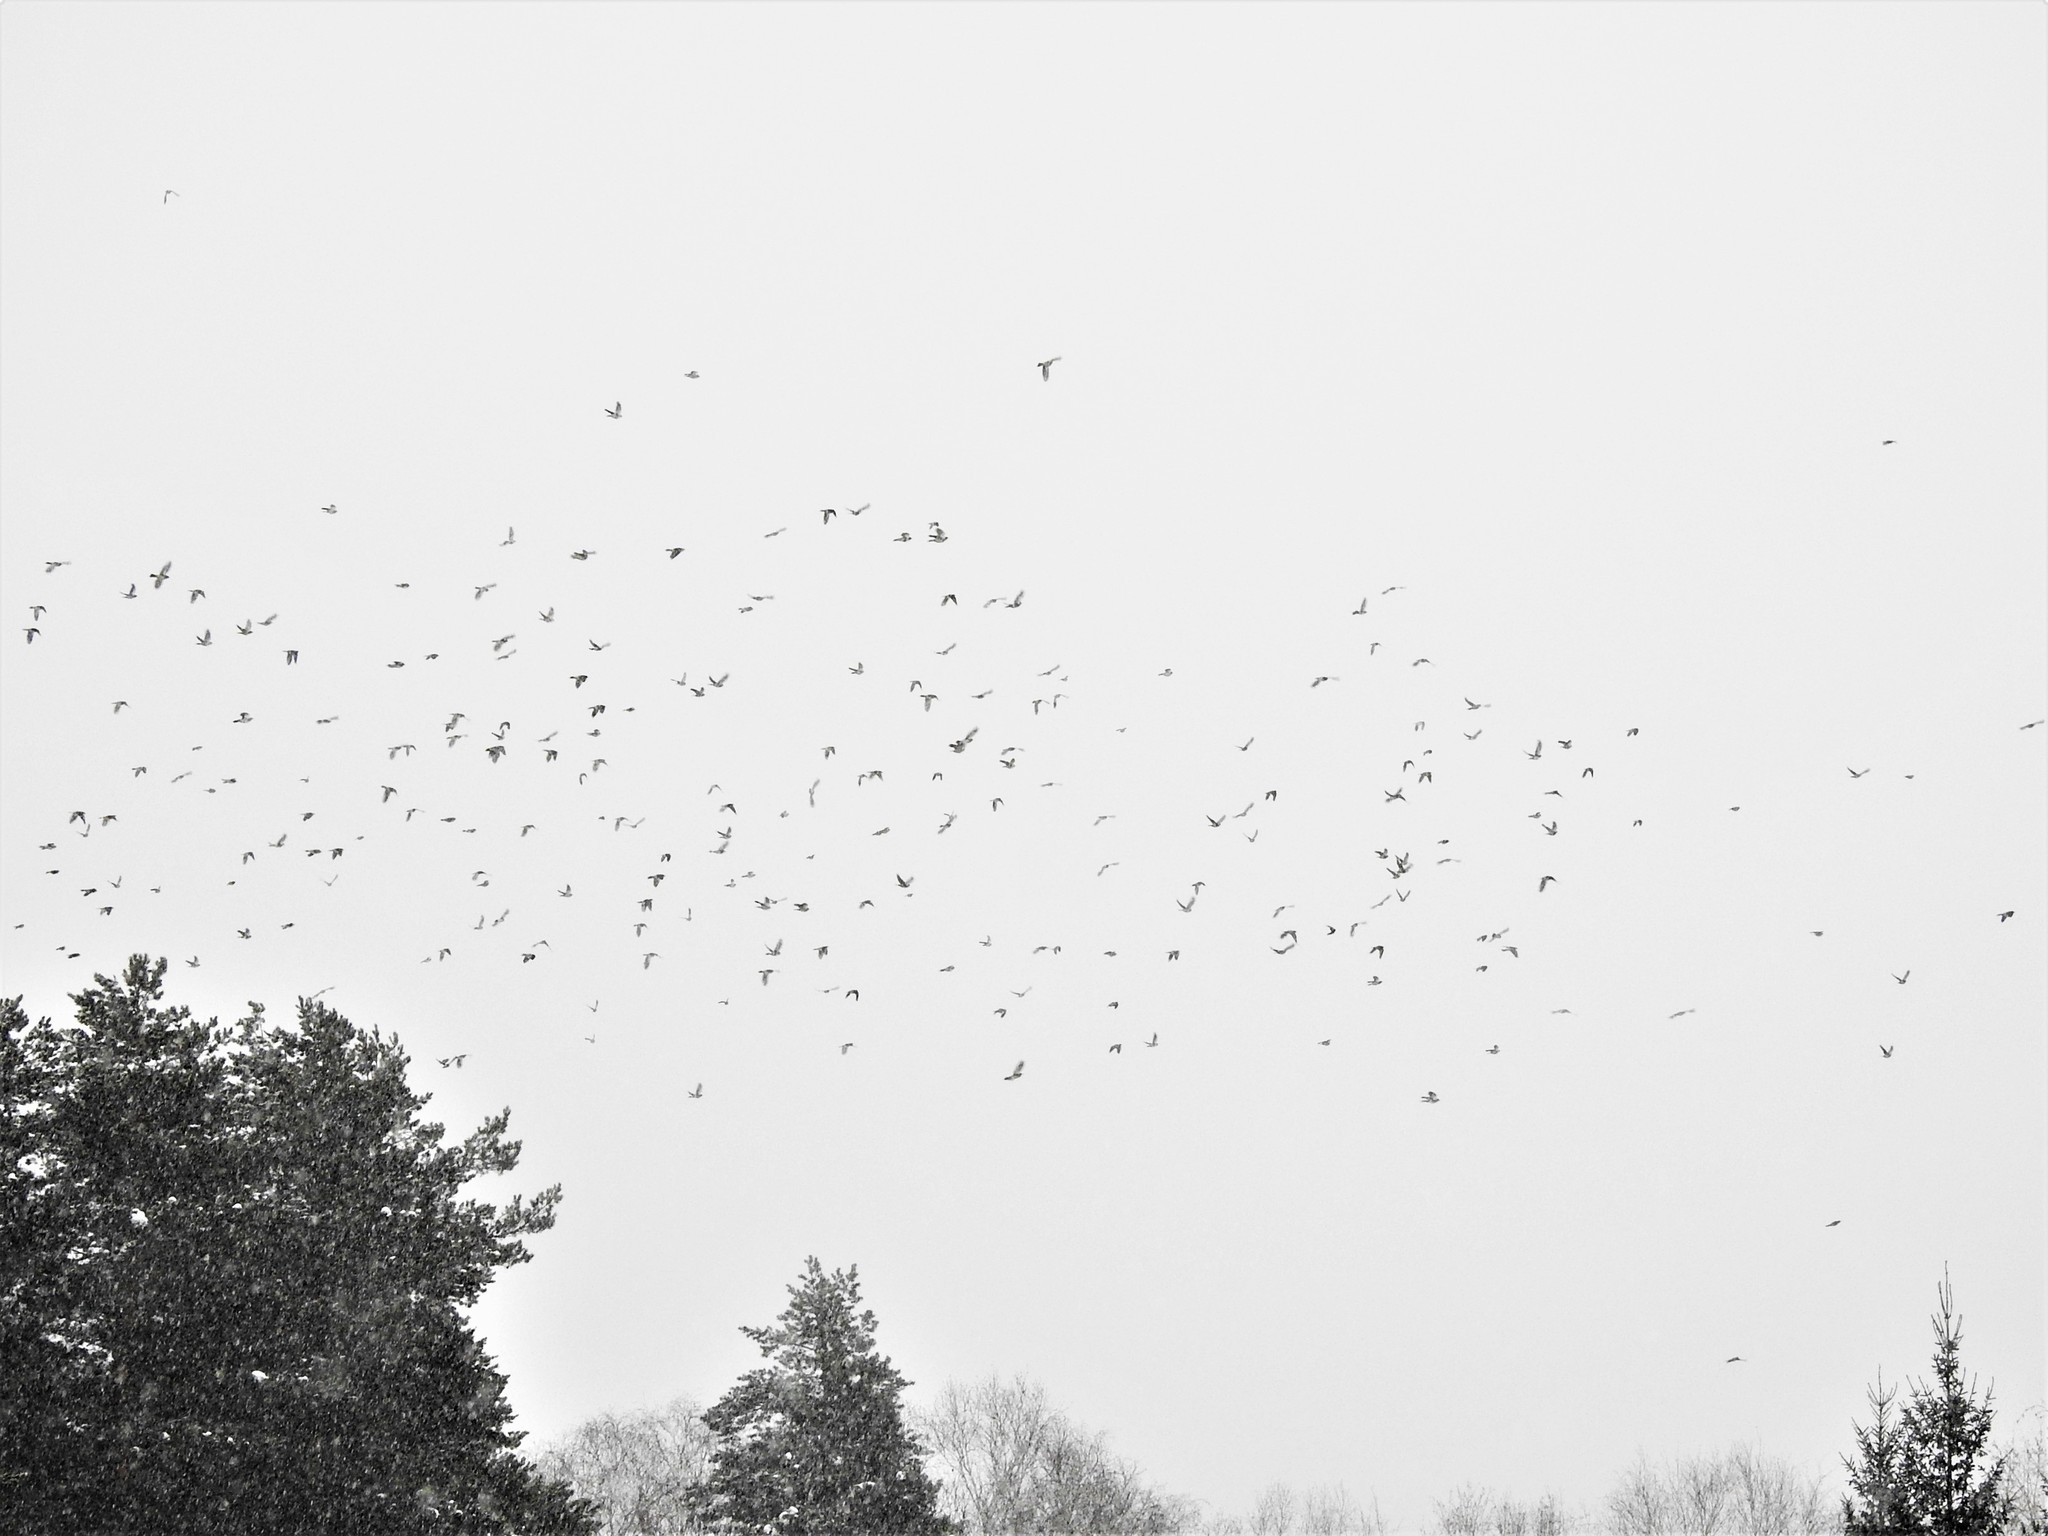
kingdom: Animalia
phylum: Chordata
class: Aves
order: Passeriformes
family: Turdidae
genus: Turdus
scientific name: Turdus pilaris
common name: Fieldfare
